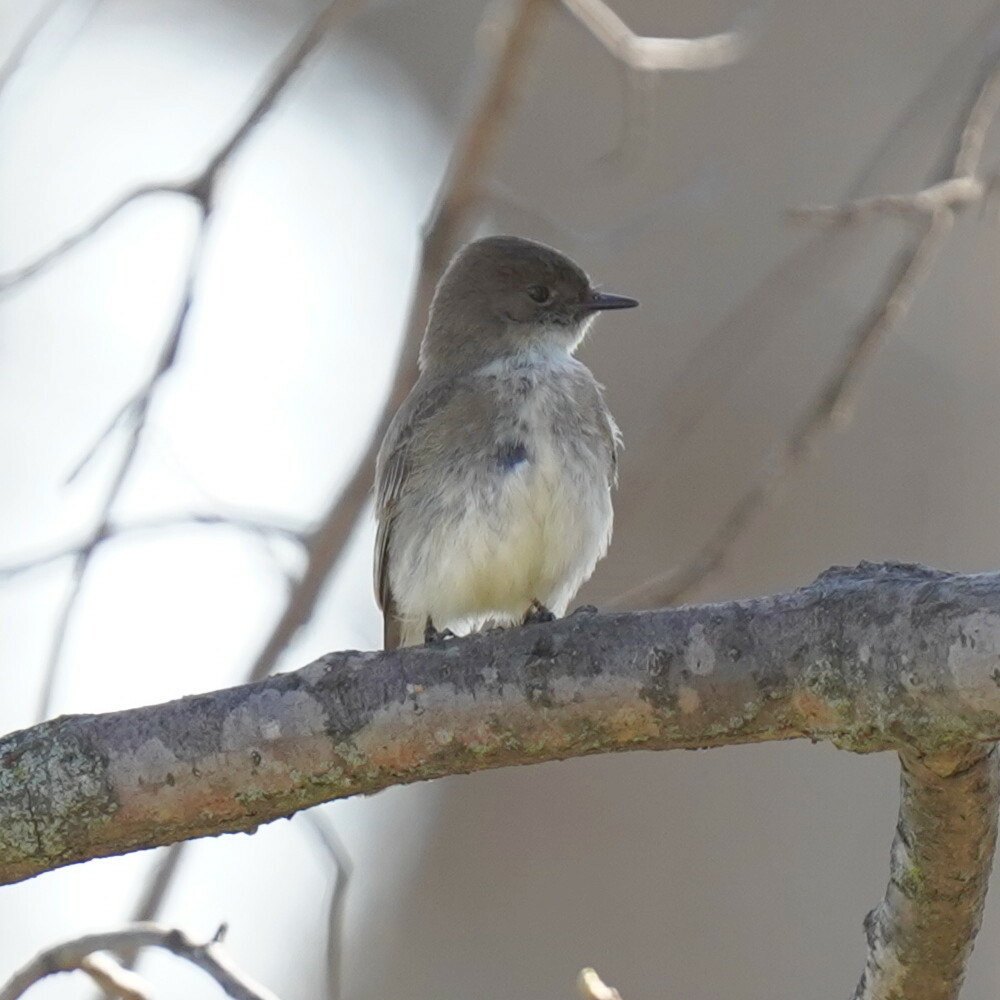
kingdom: Animalia
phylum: Chordata
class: Aves
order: Passeriformes
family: Tyrannidae
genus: Sayornis
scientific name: Sayornis phoebe
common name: Eastern phoebe
